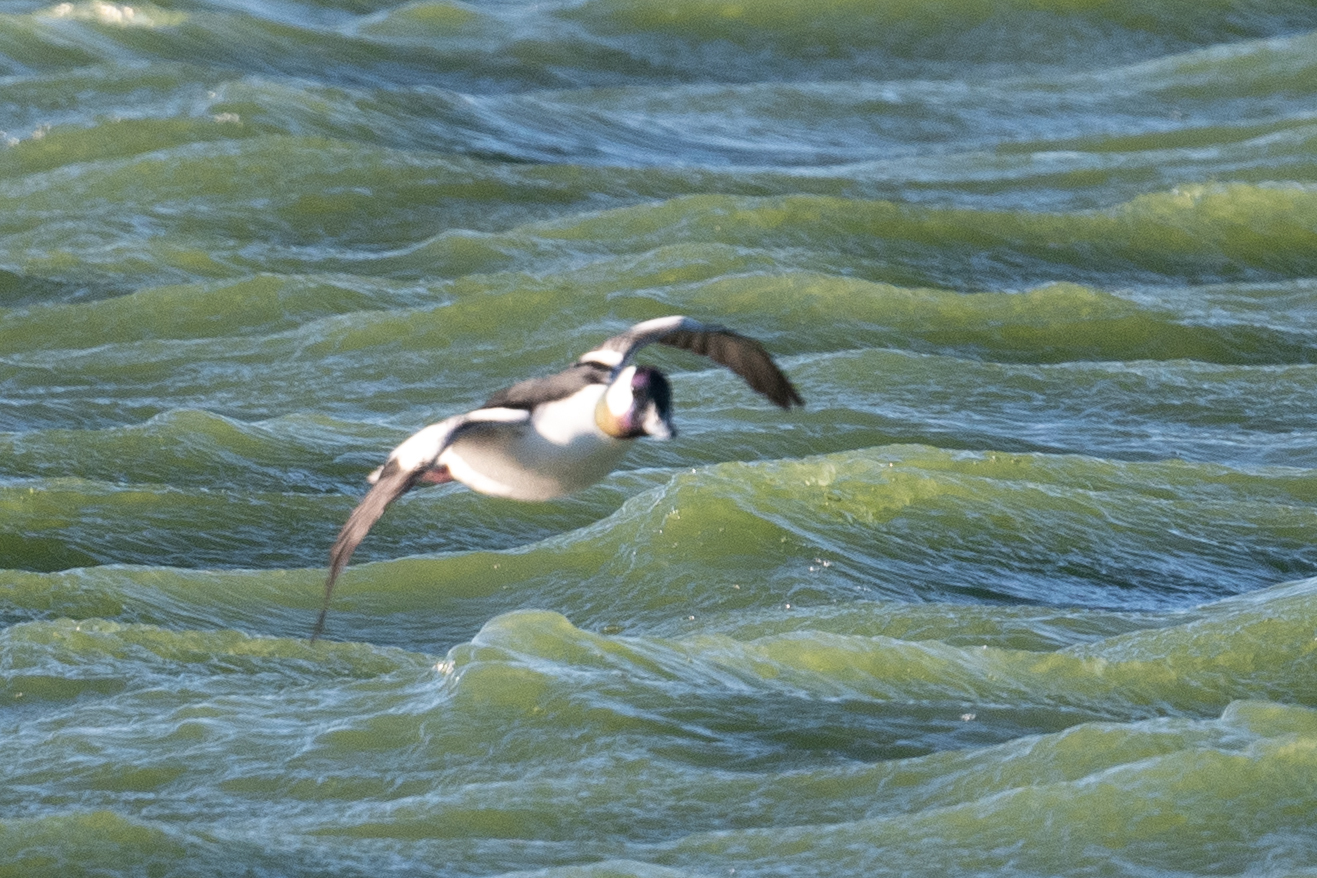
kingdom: Animalia
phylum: Chordata
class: Aves
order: Anseriformes
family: Anatidae
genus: Bucephala
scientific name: Bucephala albeola
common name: Bufflehead
